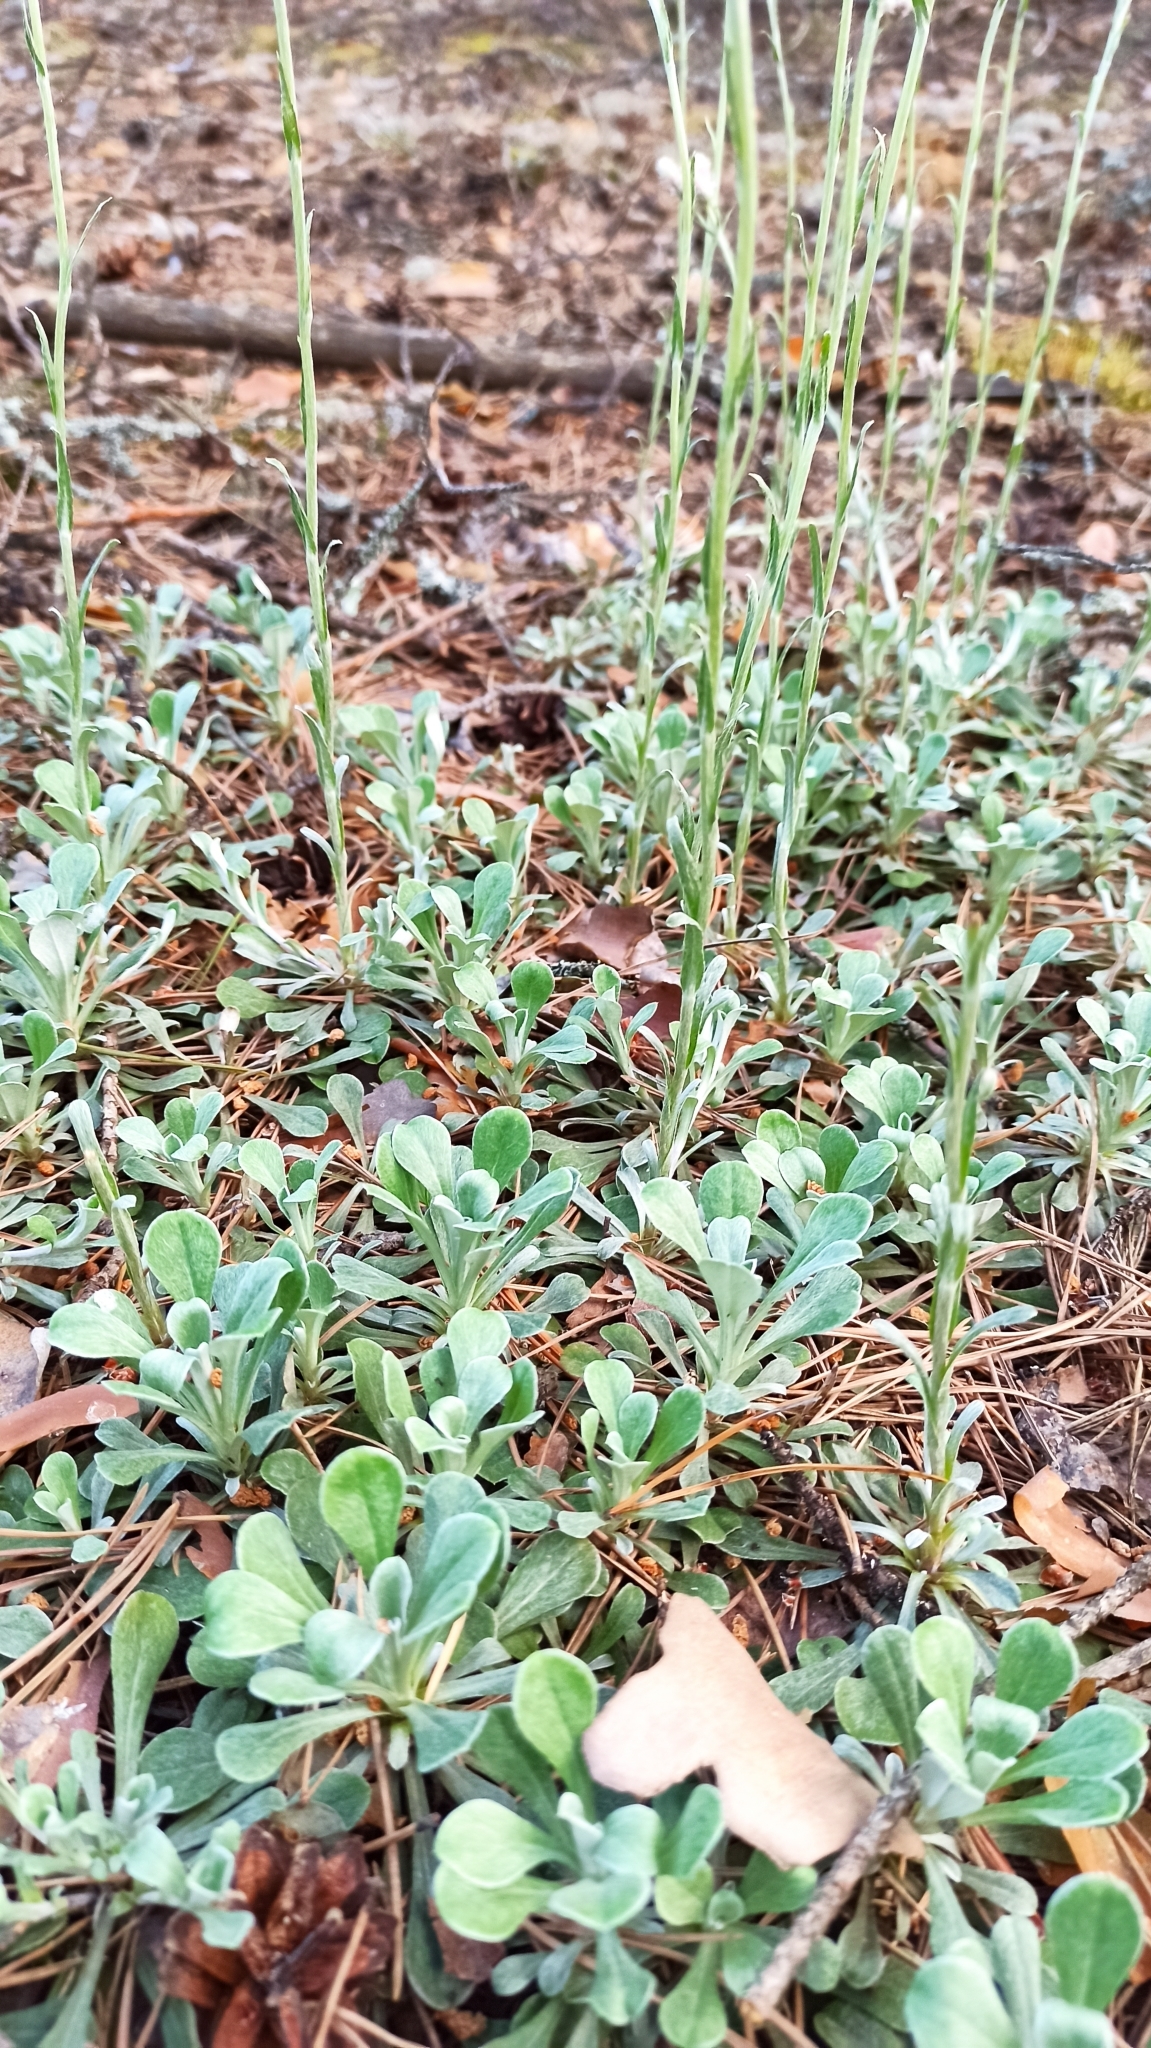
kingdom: Plantae
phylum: Tracheophyta
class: Magnoliopsida
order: Asterales
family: Asteraceae
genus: Antennaria
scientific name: Antennaria dioica
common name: Mountain everlasting
